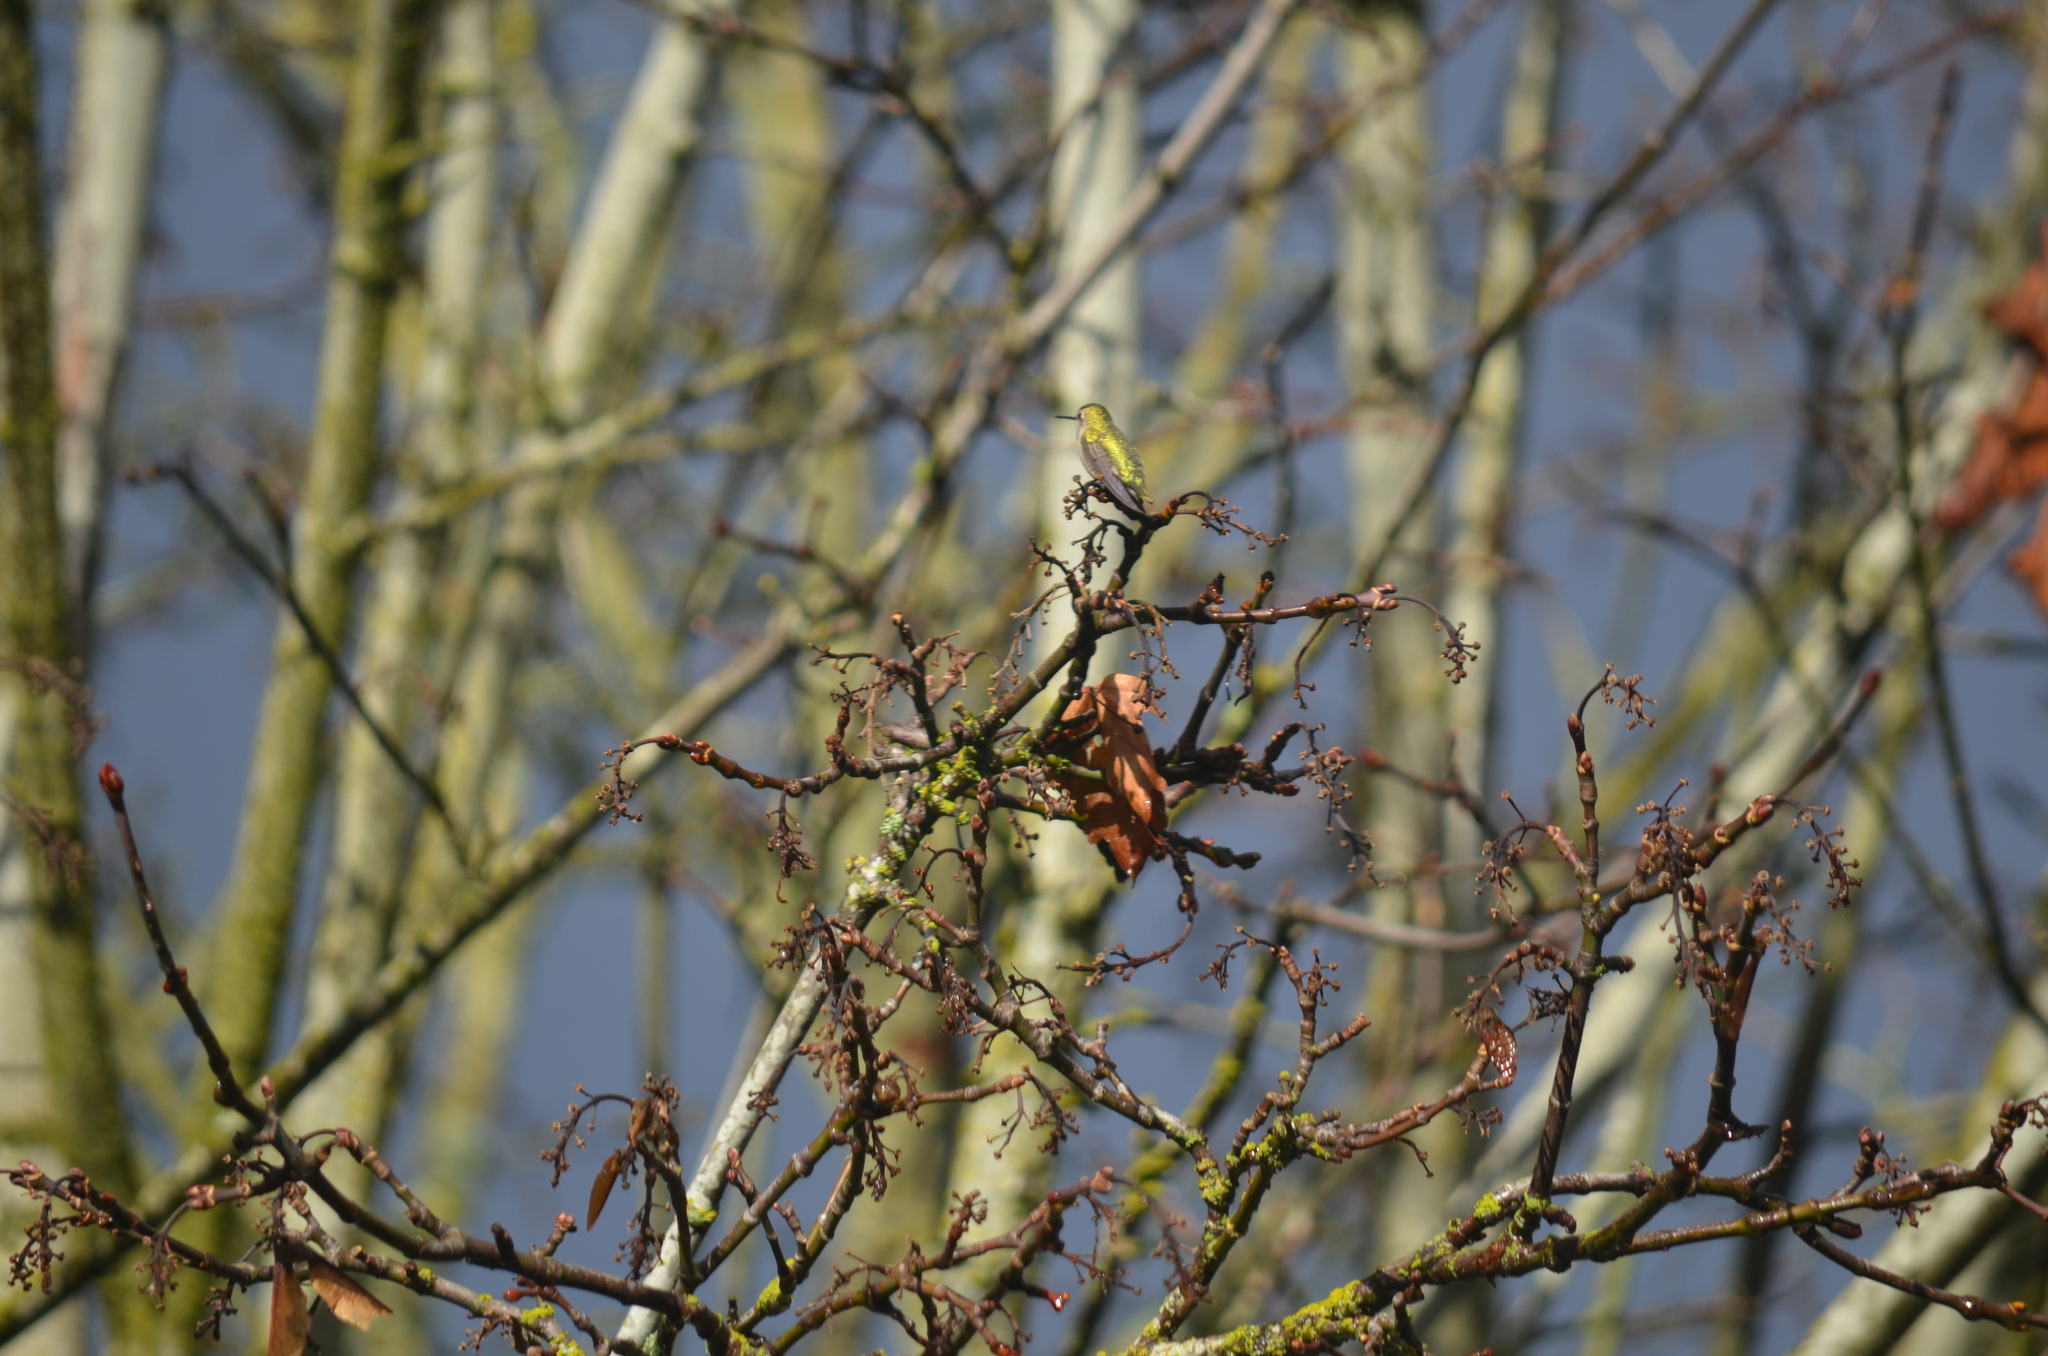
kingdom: Animalia
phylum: Chordata
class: Aves
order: Apodiformes
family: Trochilidae
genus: Calypte
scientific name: Calypte anna
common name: Anna's hummingbird
